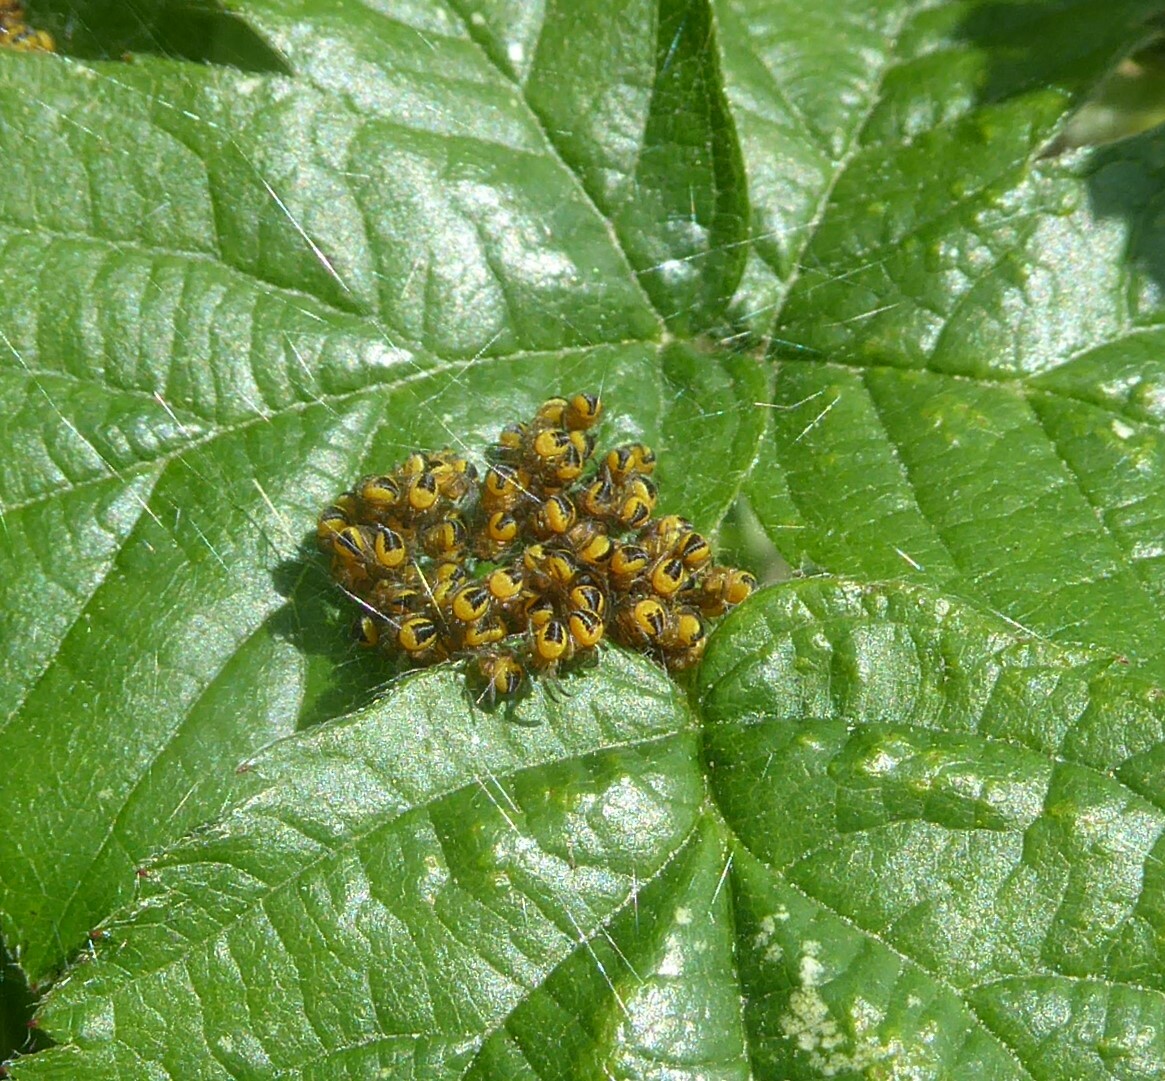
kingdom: Animalia
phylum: Arthropoda
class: Arachnida
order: Araneae
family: Araneidae
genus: Araneus
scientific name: Araneus diadematus
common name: Cross orbweaver
